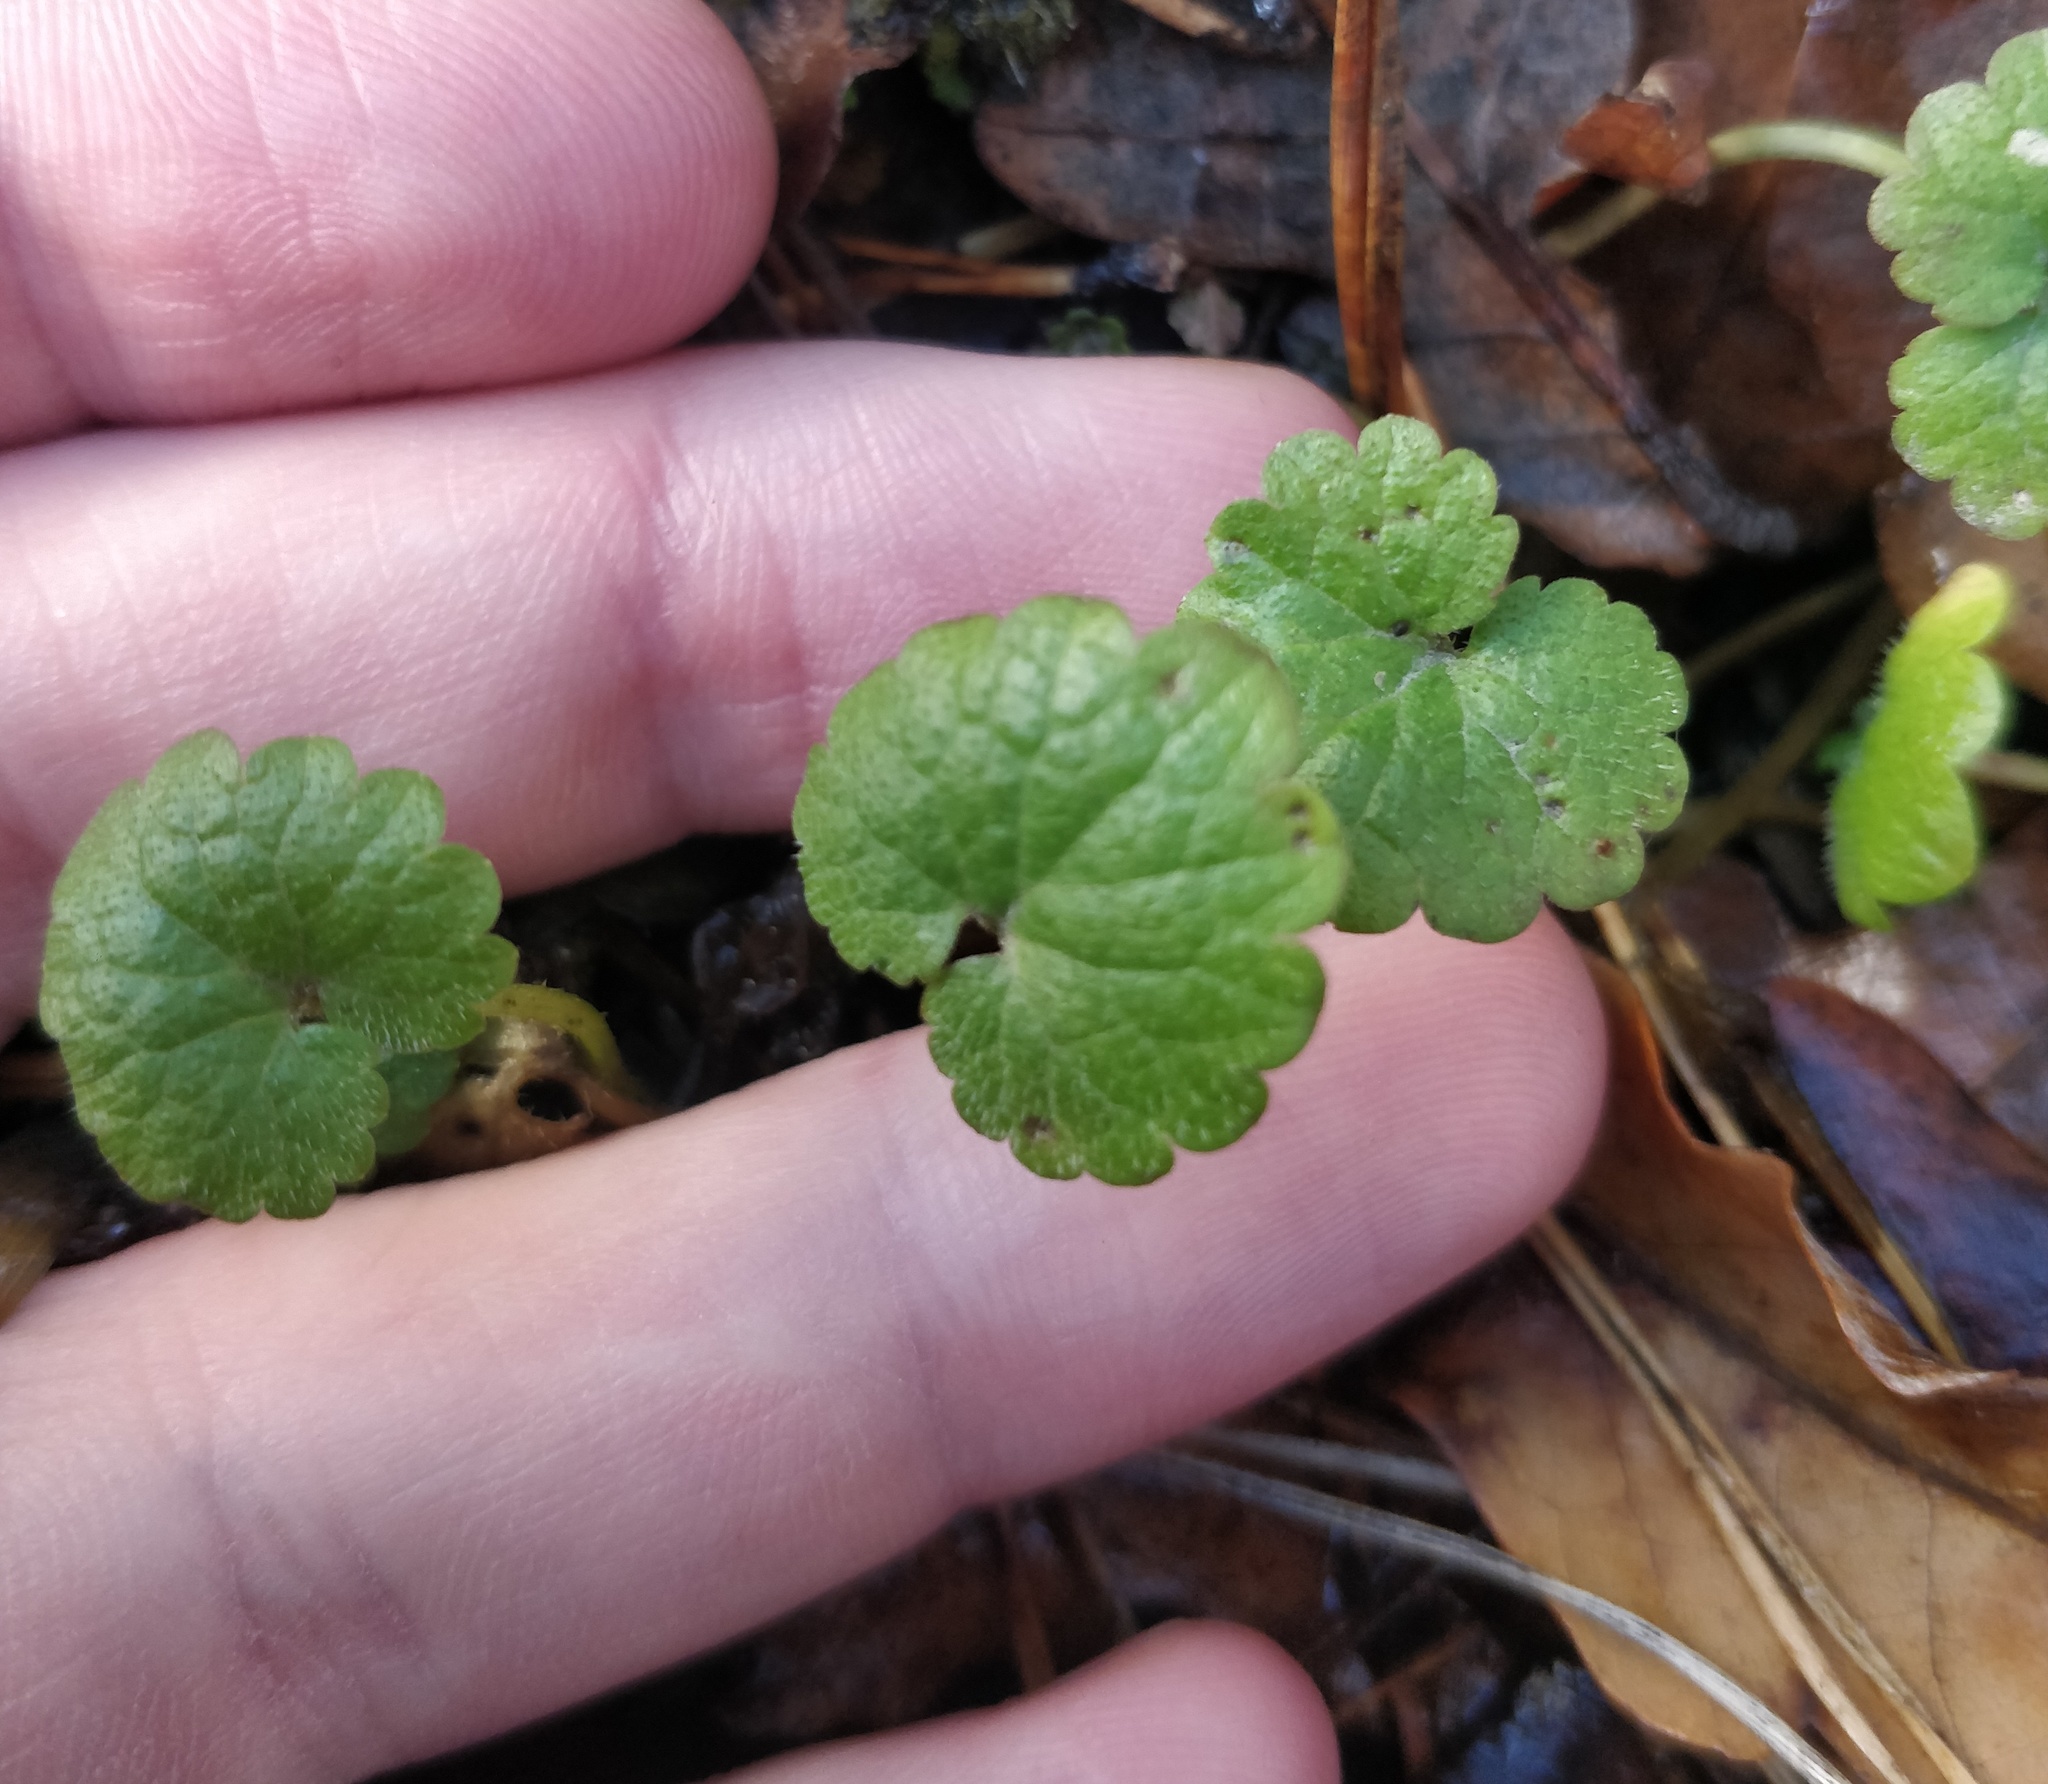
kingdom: Plantae
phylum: Tracheophyta
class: Magnoliopsida
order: Lamiales
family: Lamiaceae
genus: Glechoma
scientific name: Glechoma hederacea
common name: Ground ivy
